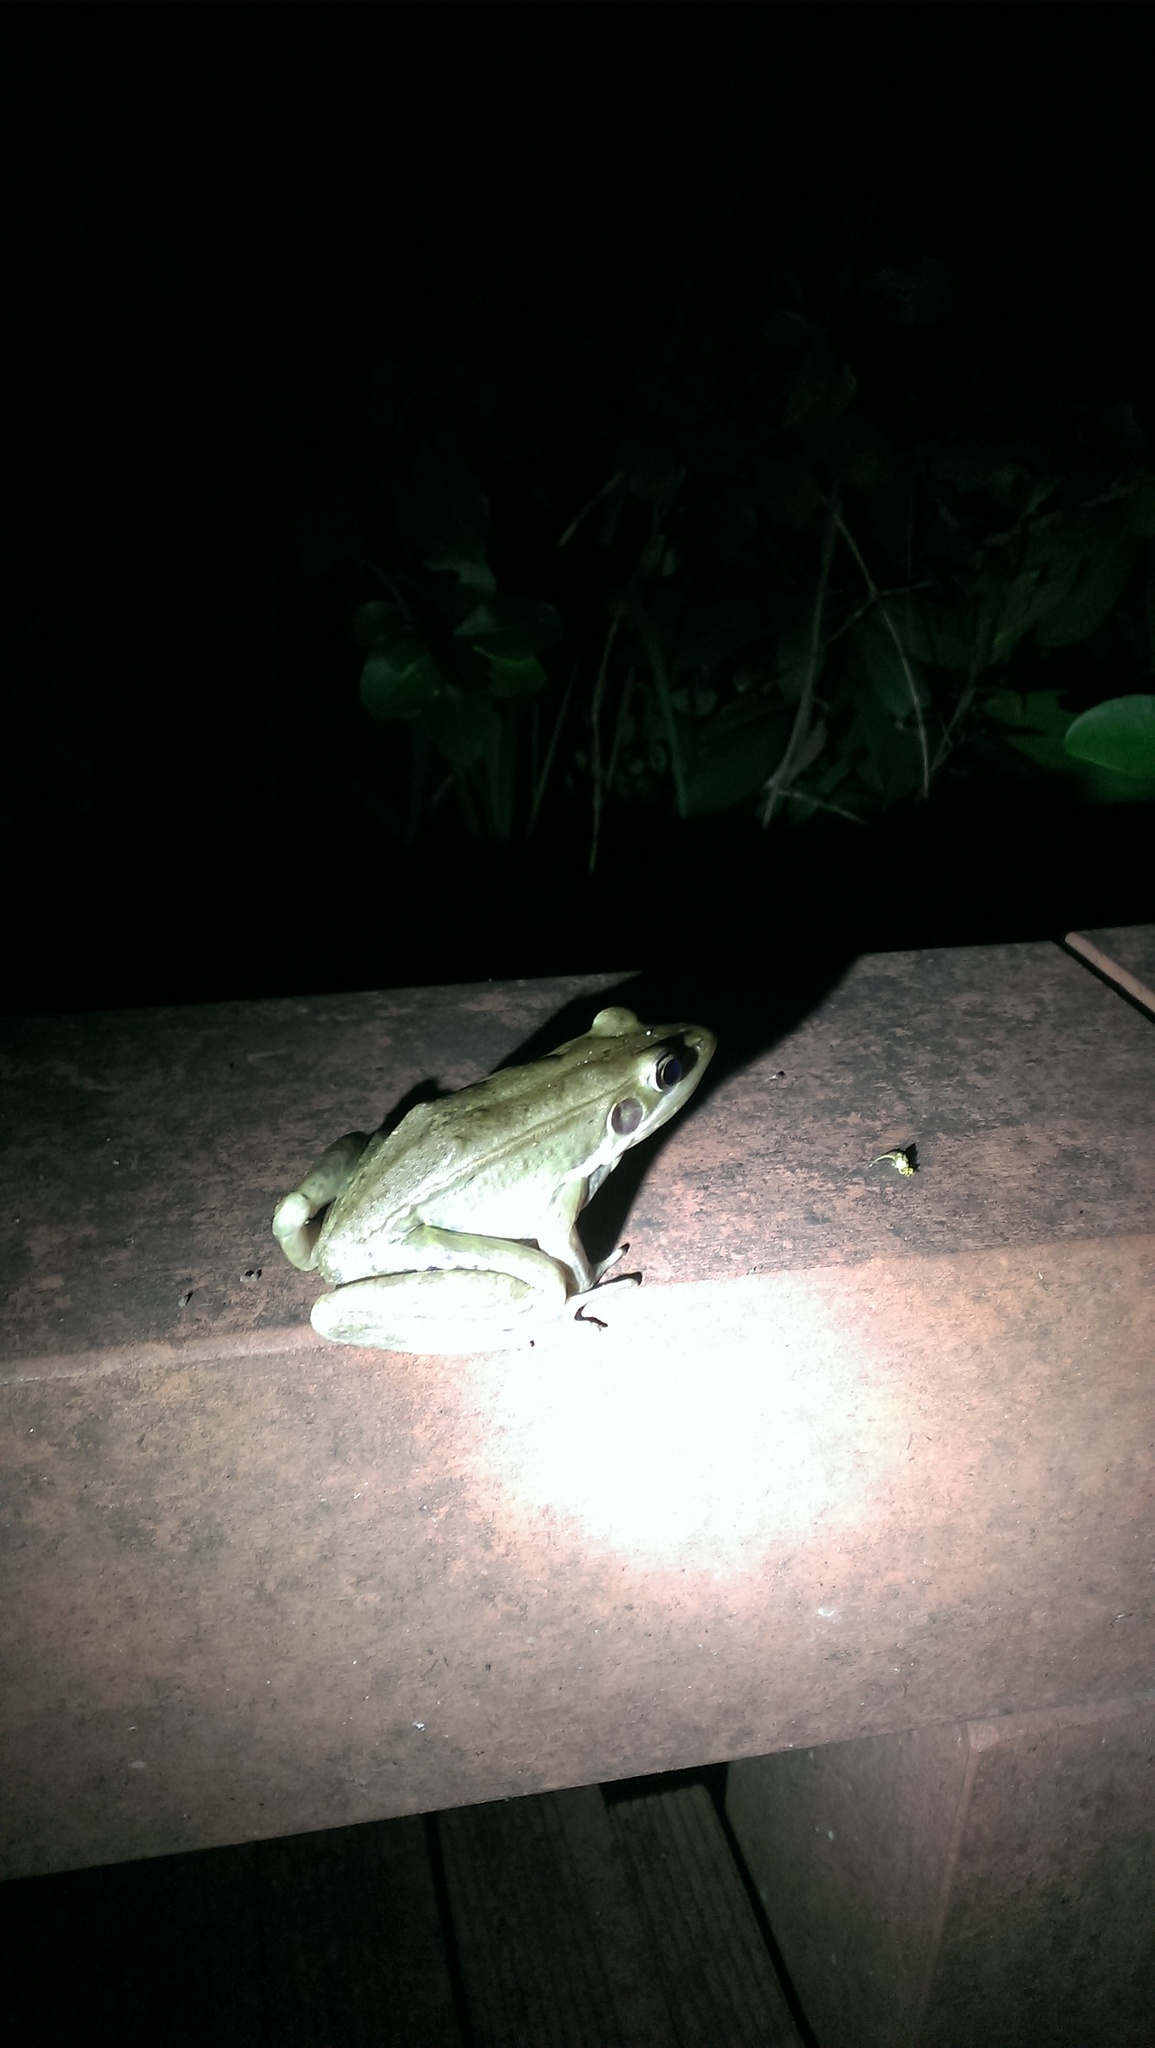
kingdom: Animalia
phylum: Chordata
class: Amphibia
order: Anura
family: Ranidae
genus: Sylvirana
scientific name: Sylvirana guentheri
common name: Guenther's amoy frog
